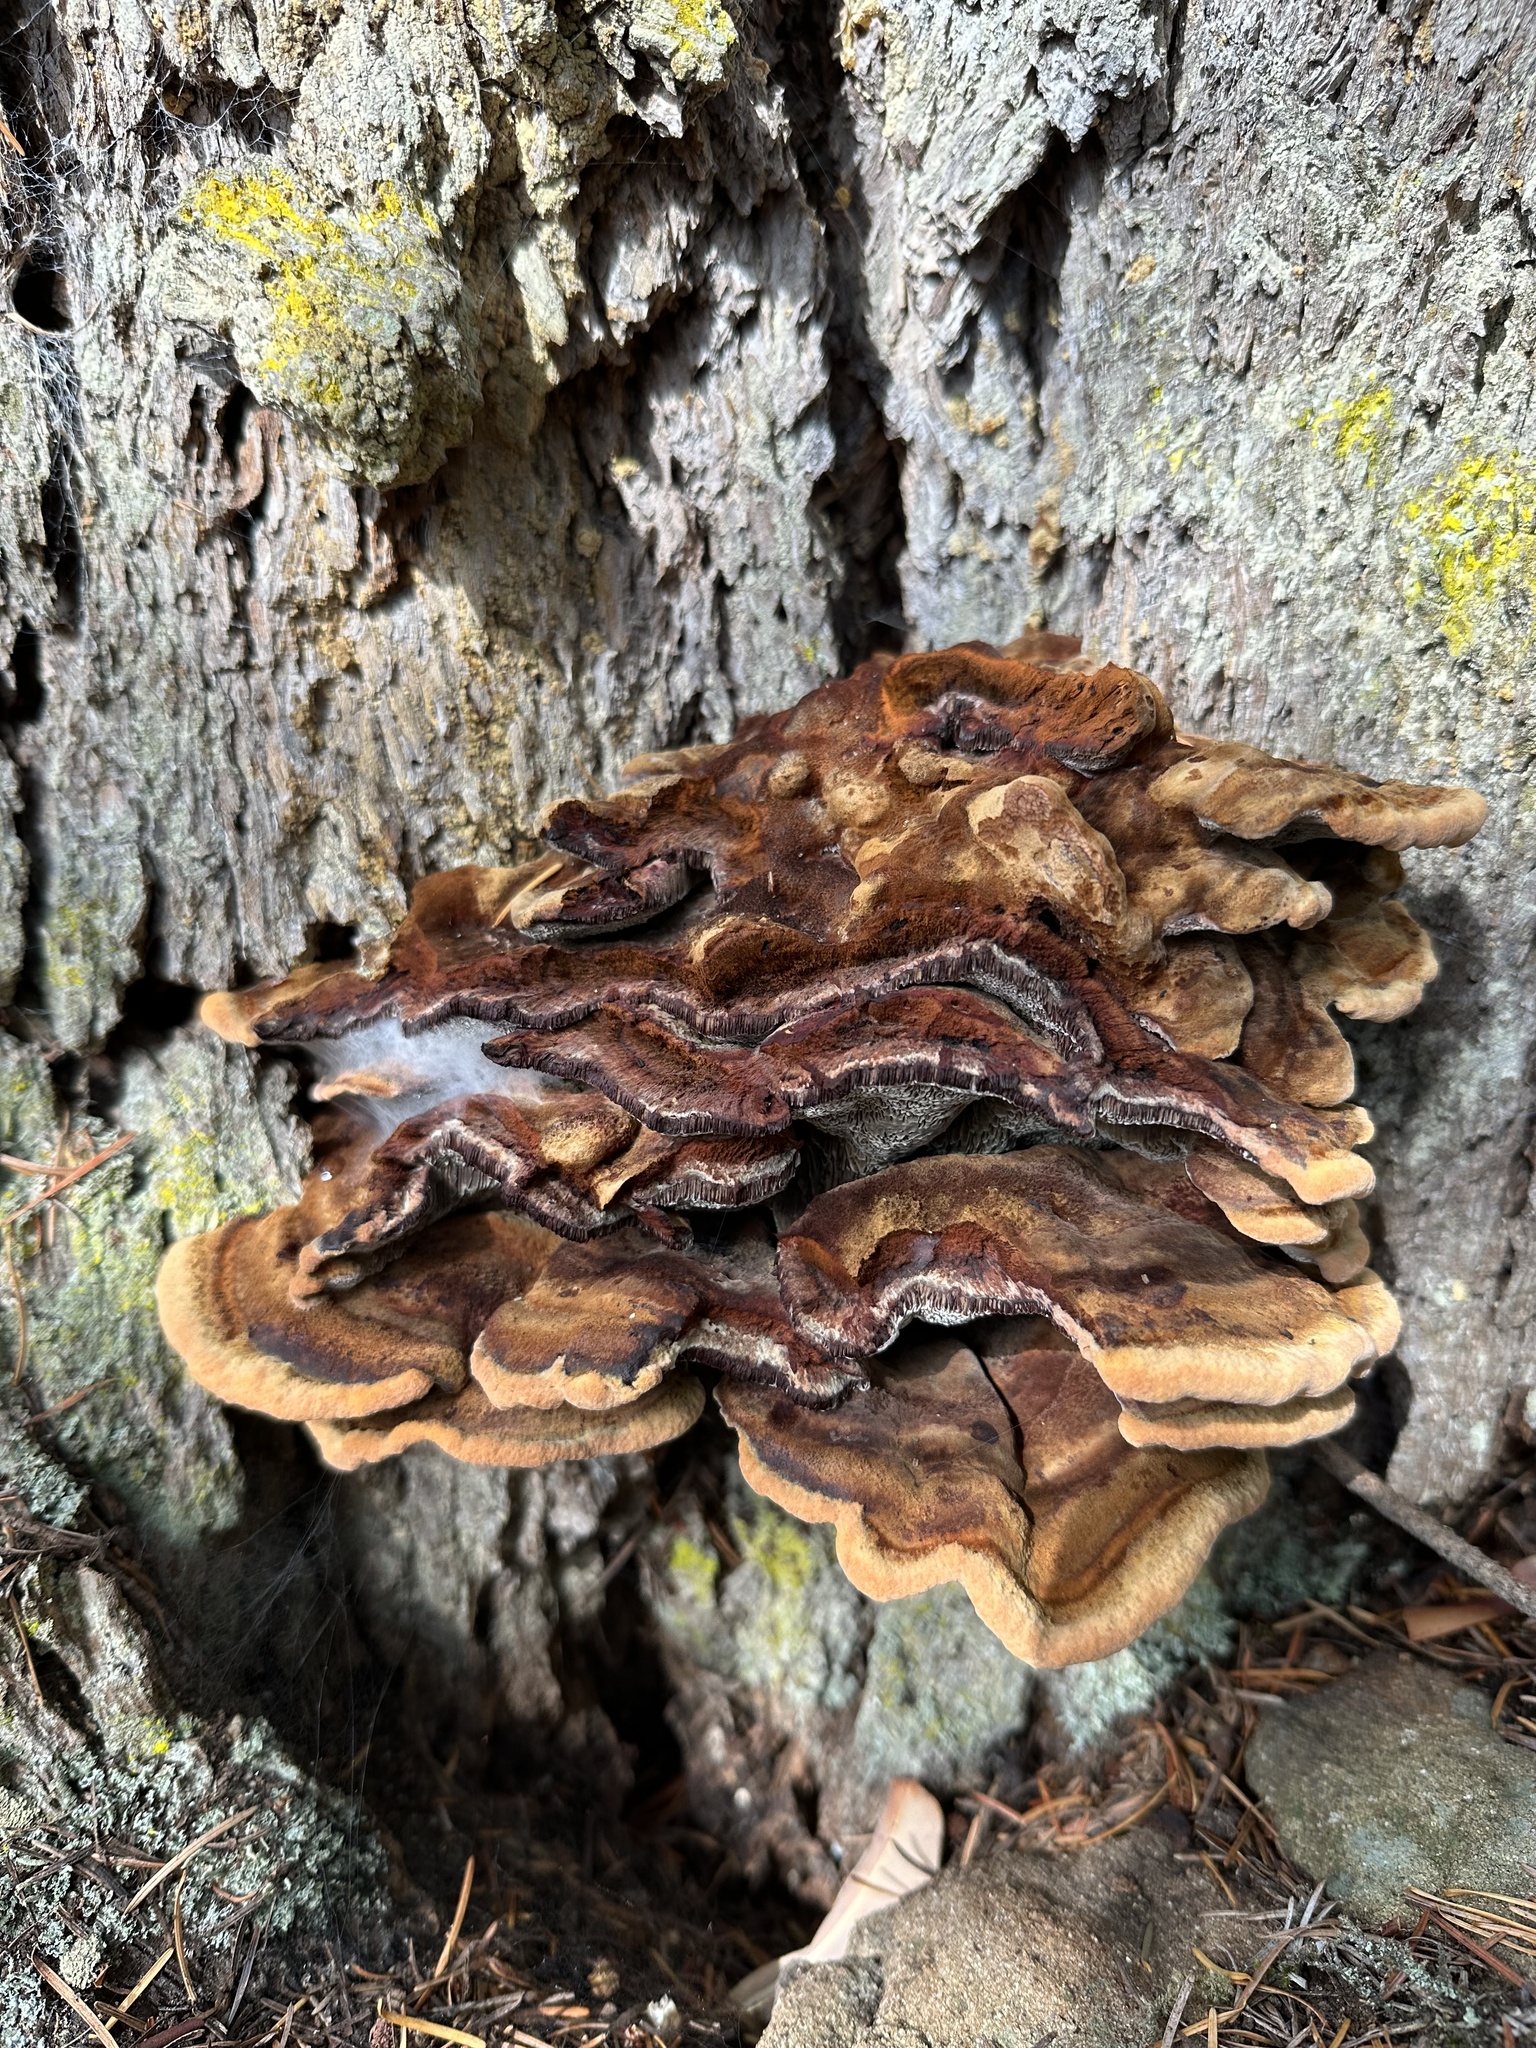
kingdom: Fungi
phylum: Basidiomycota
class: Agaricomycetes
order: Polyporales
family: Laetiporaceae
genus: Phaeolus
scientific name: Phaeolus schweinitzii
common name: Dyer's mazegill
